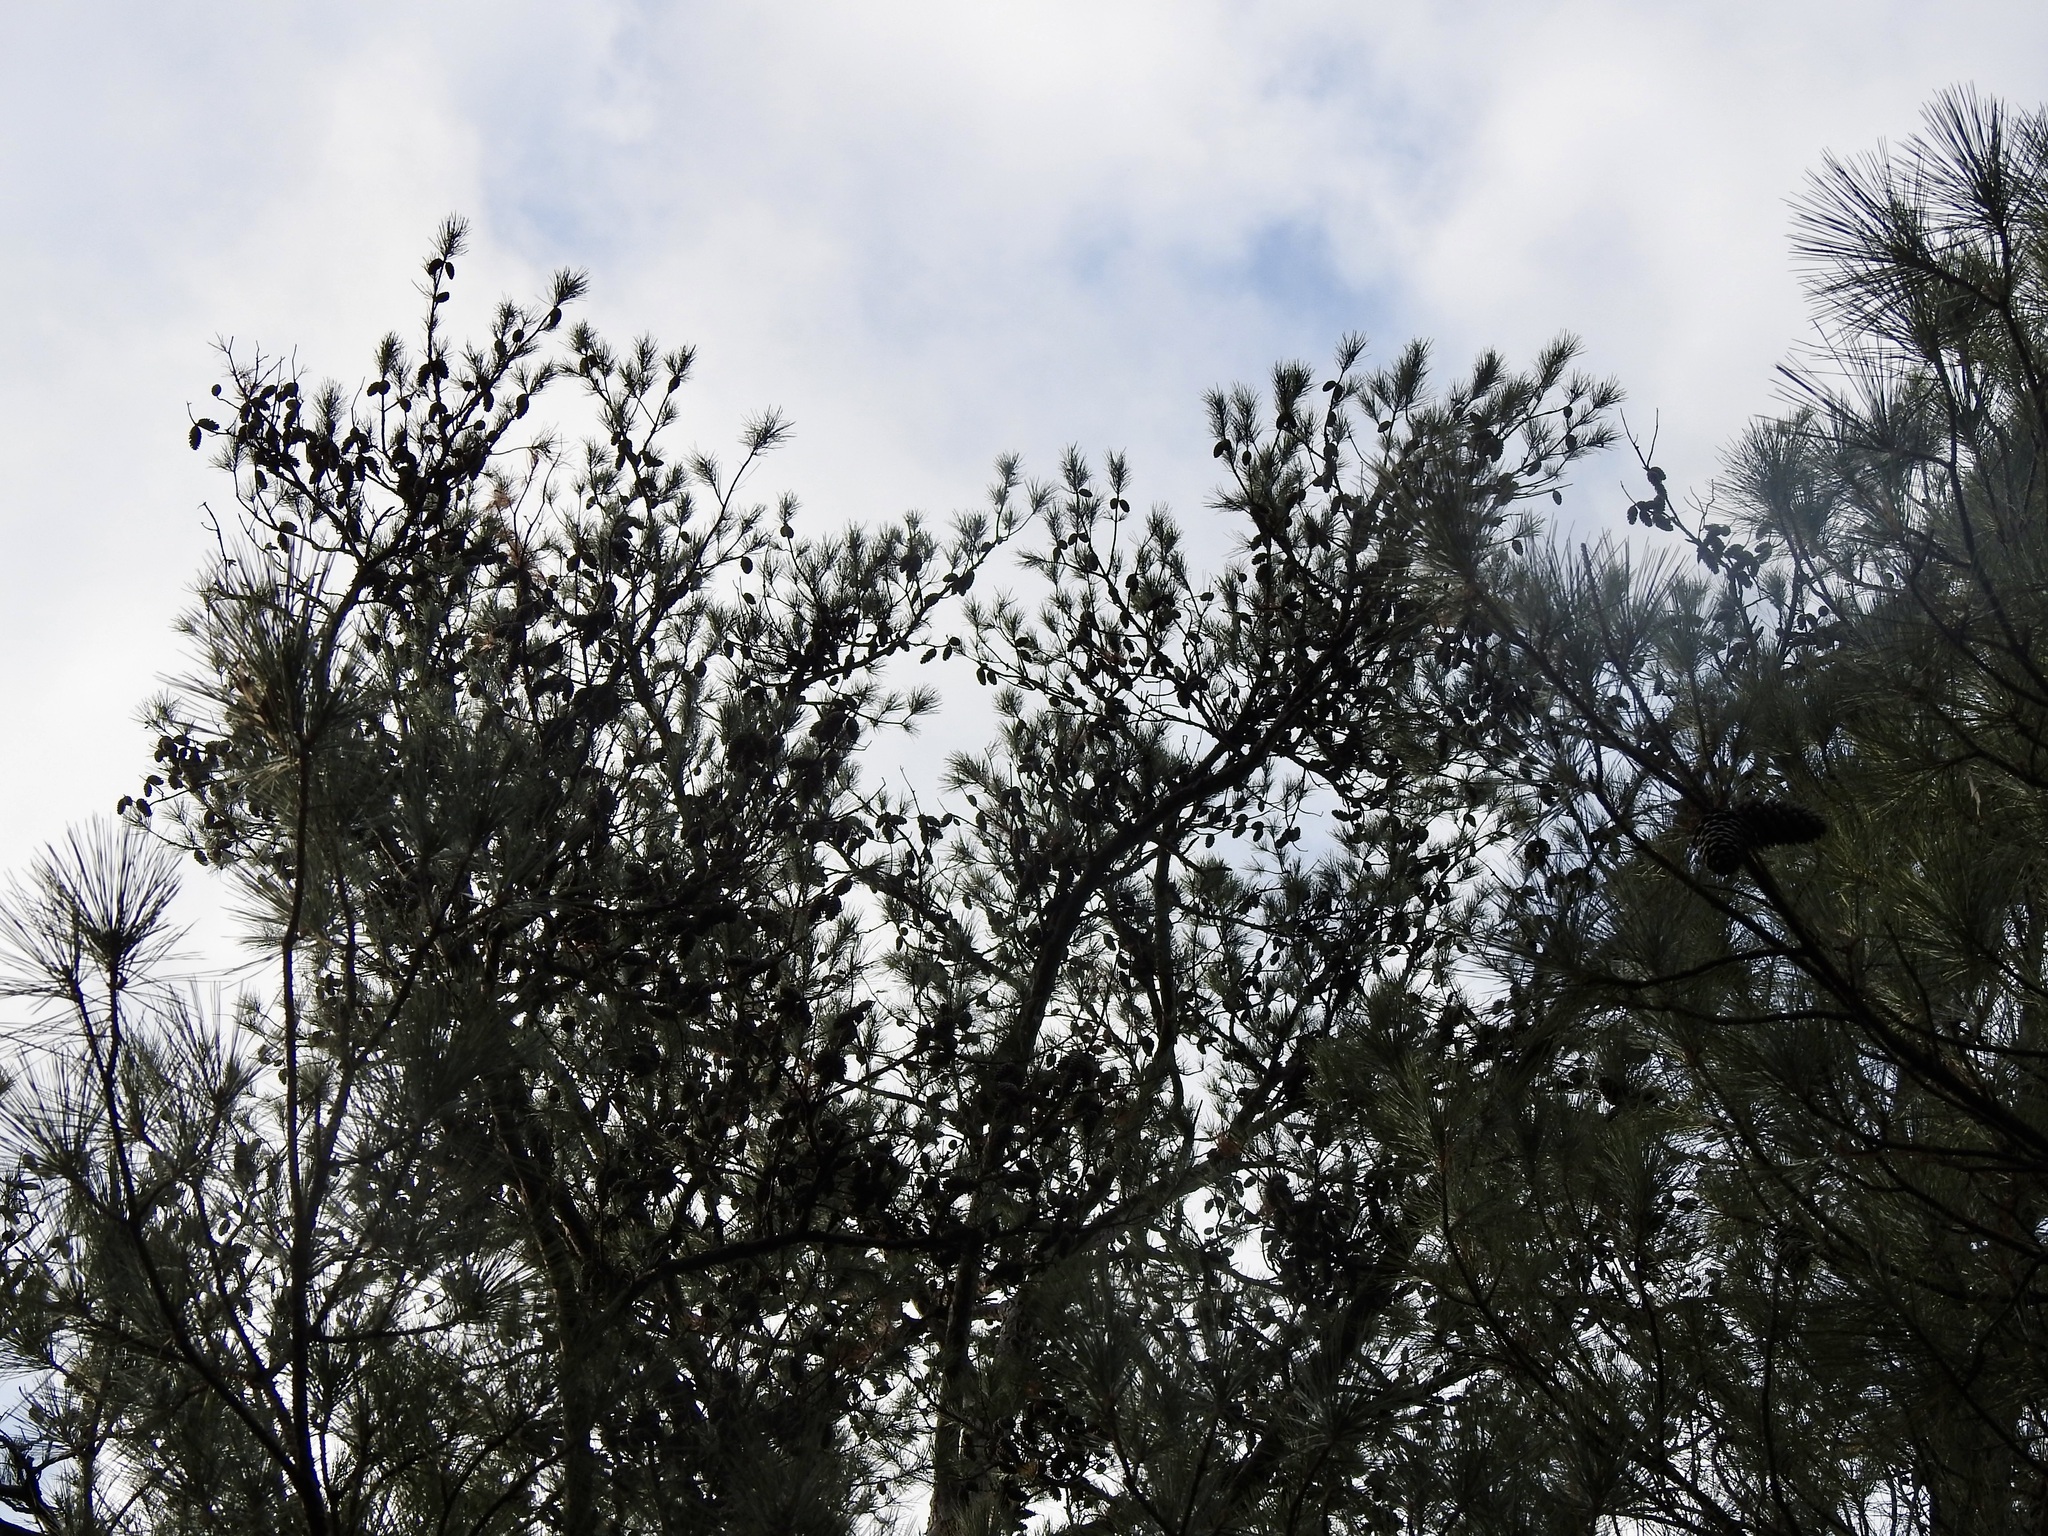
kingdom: Plantae
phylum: Tracheophyta
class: Pinopsida
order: Pinales
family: Pinaceae
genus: Pinus
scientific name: Pinus echinata
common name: Shortleaf pine
